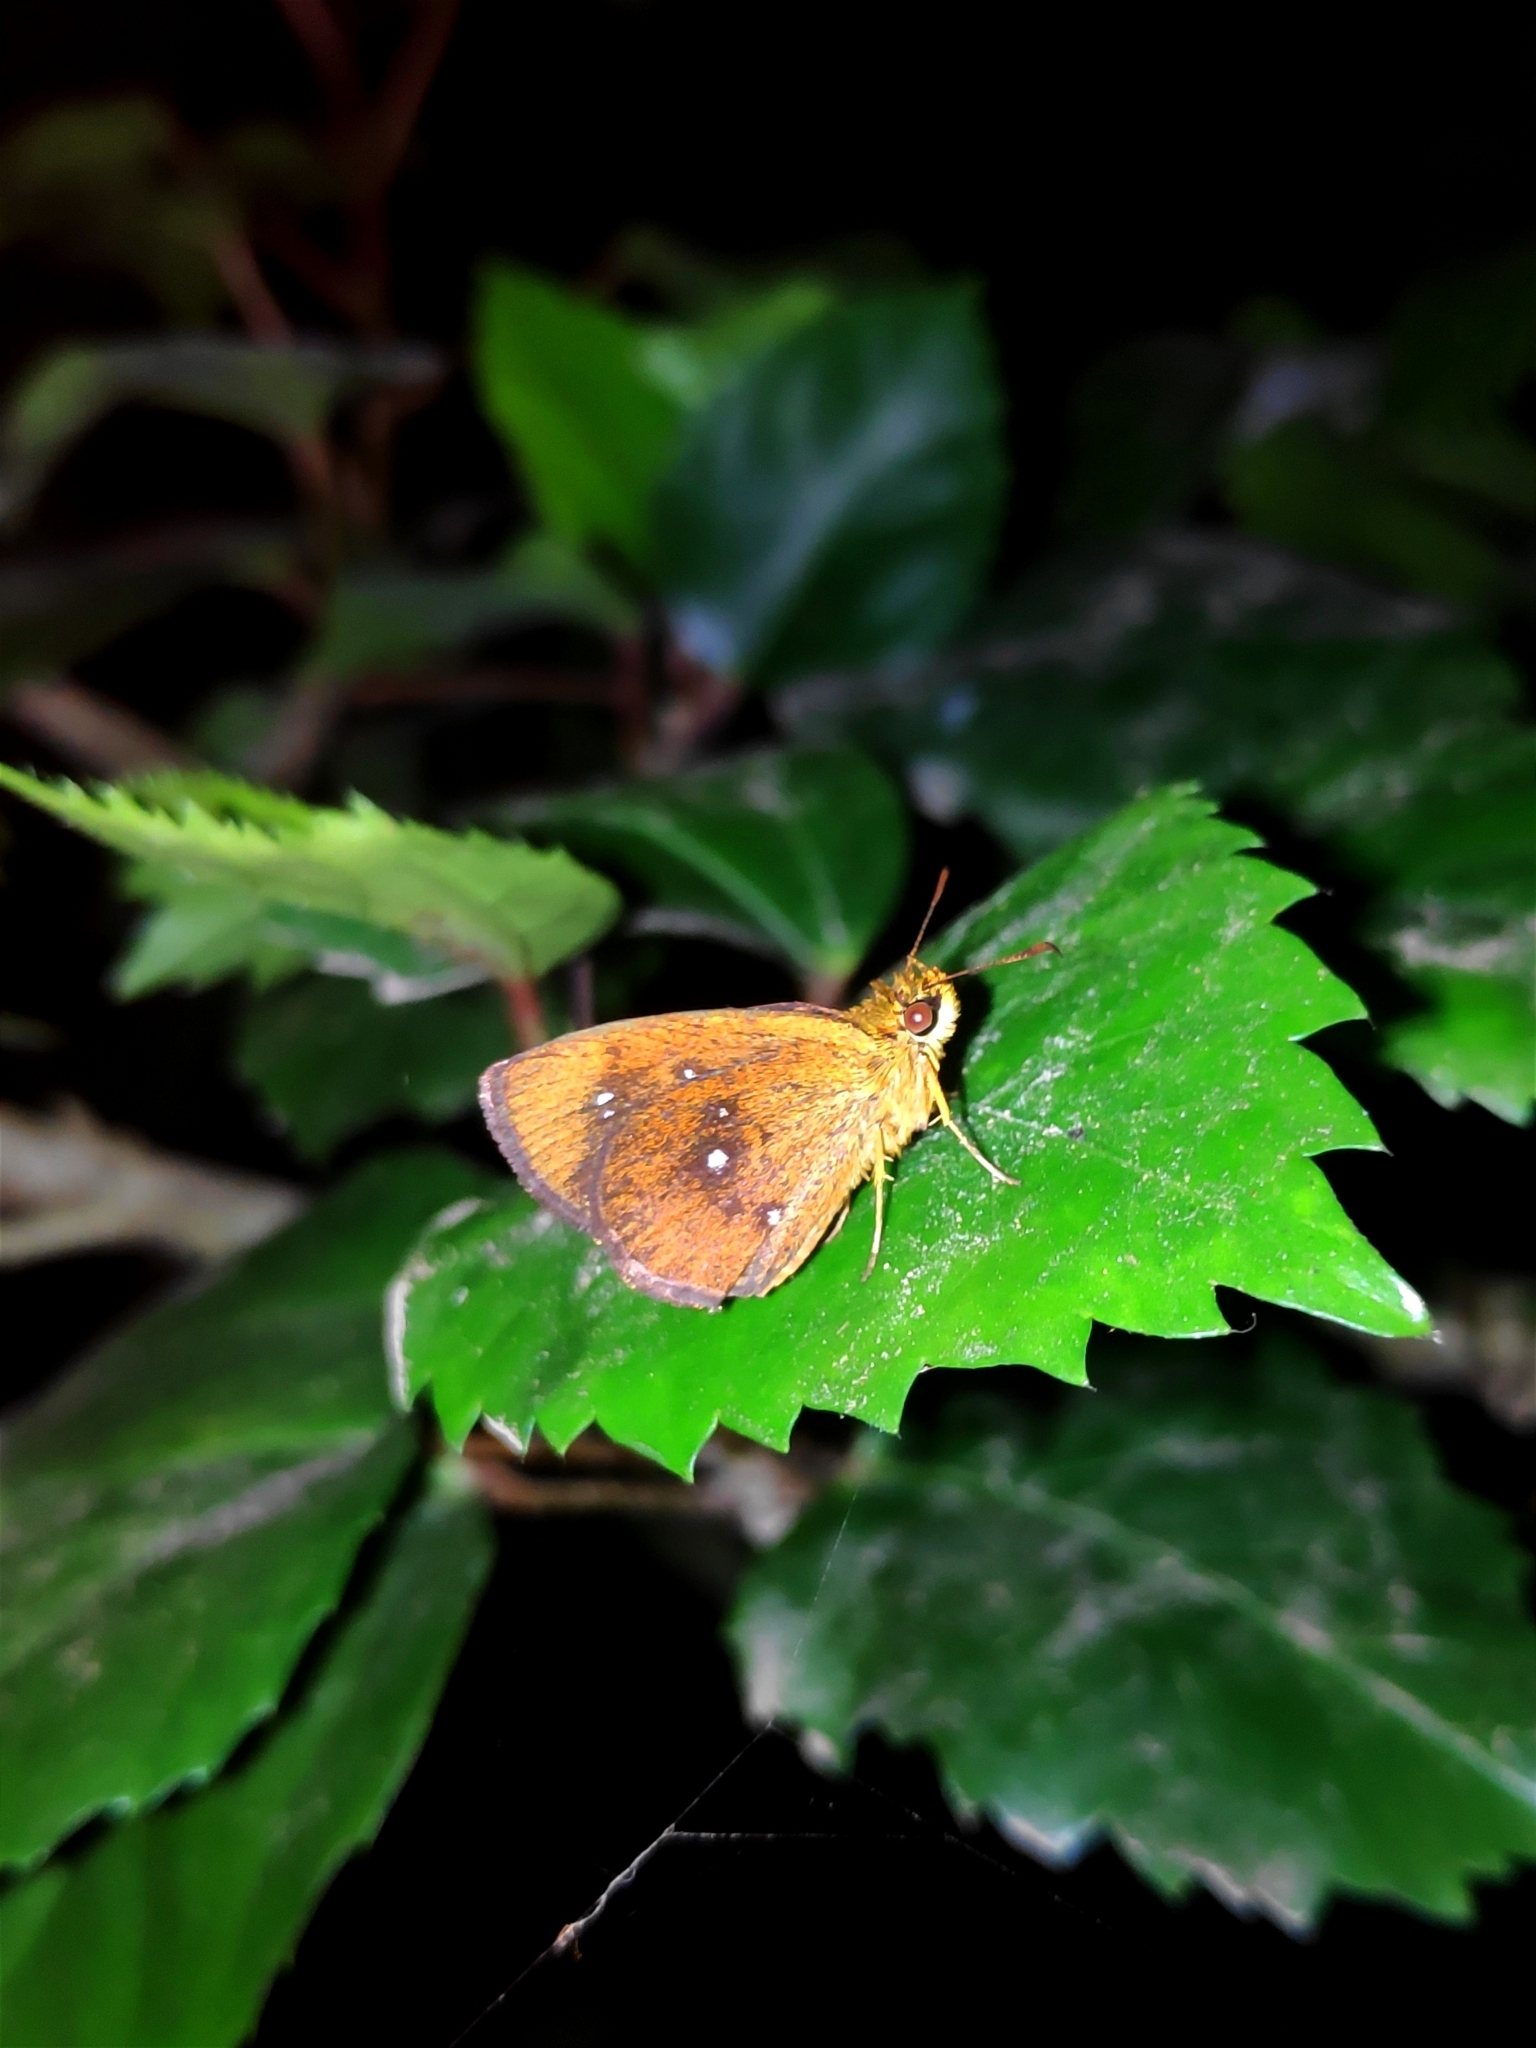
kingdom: Animalia
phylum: Arthropoda
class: Insecta
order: Lepidoptera
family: Hesperiidae
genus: Iambrix
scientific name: Iambrix salsala
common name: Chestnut bob
